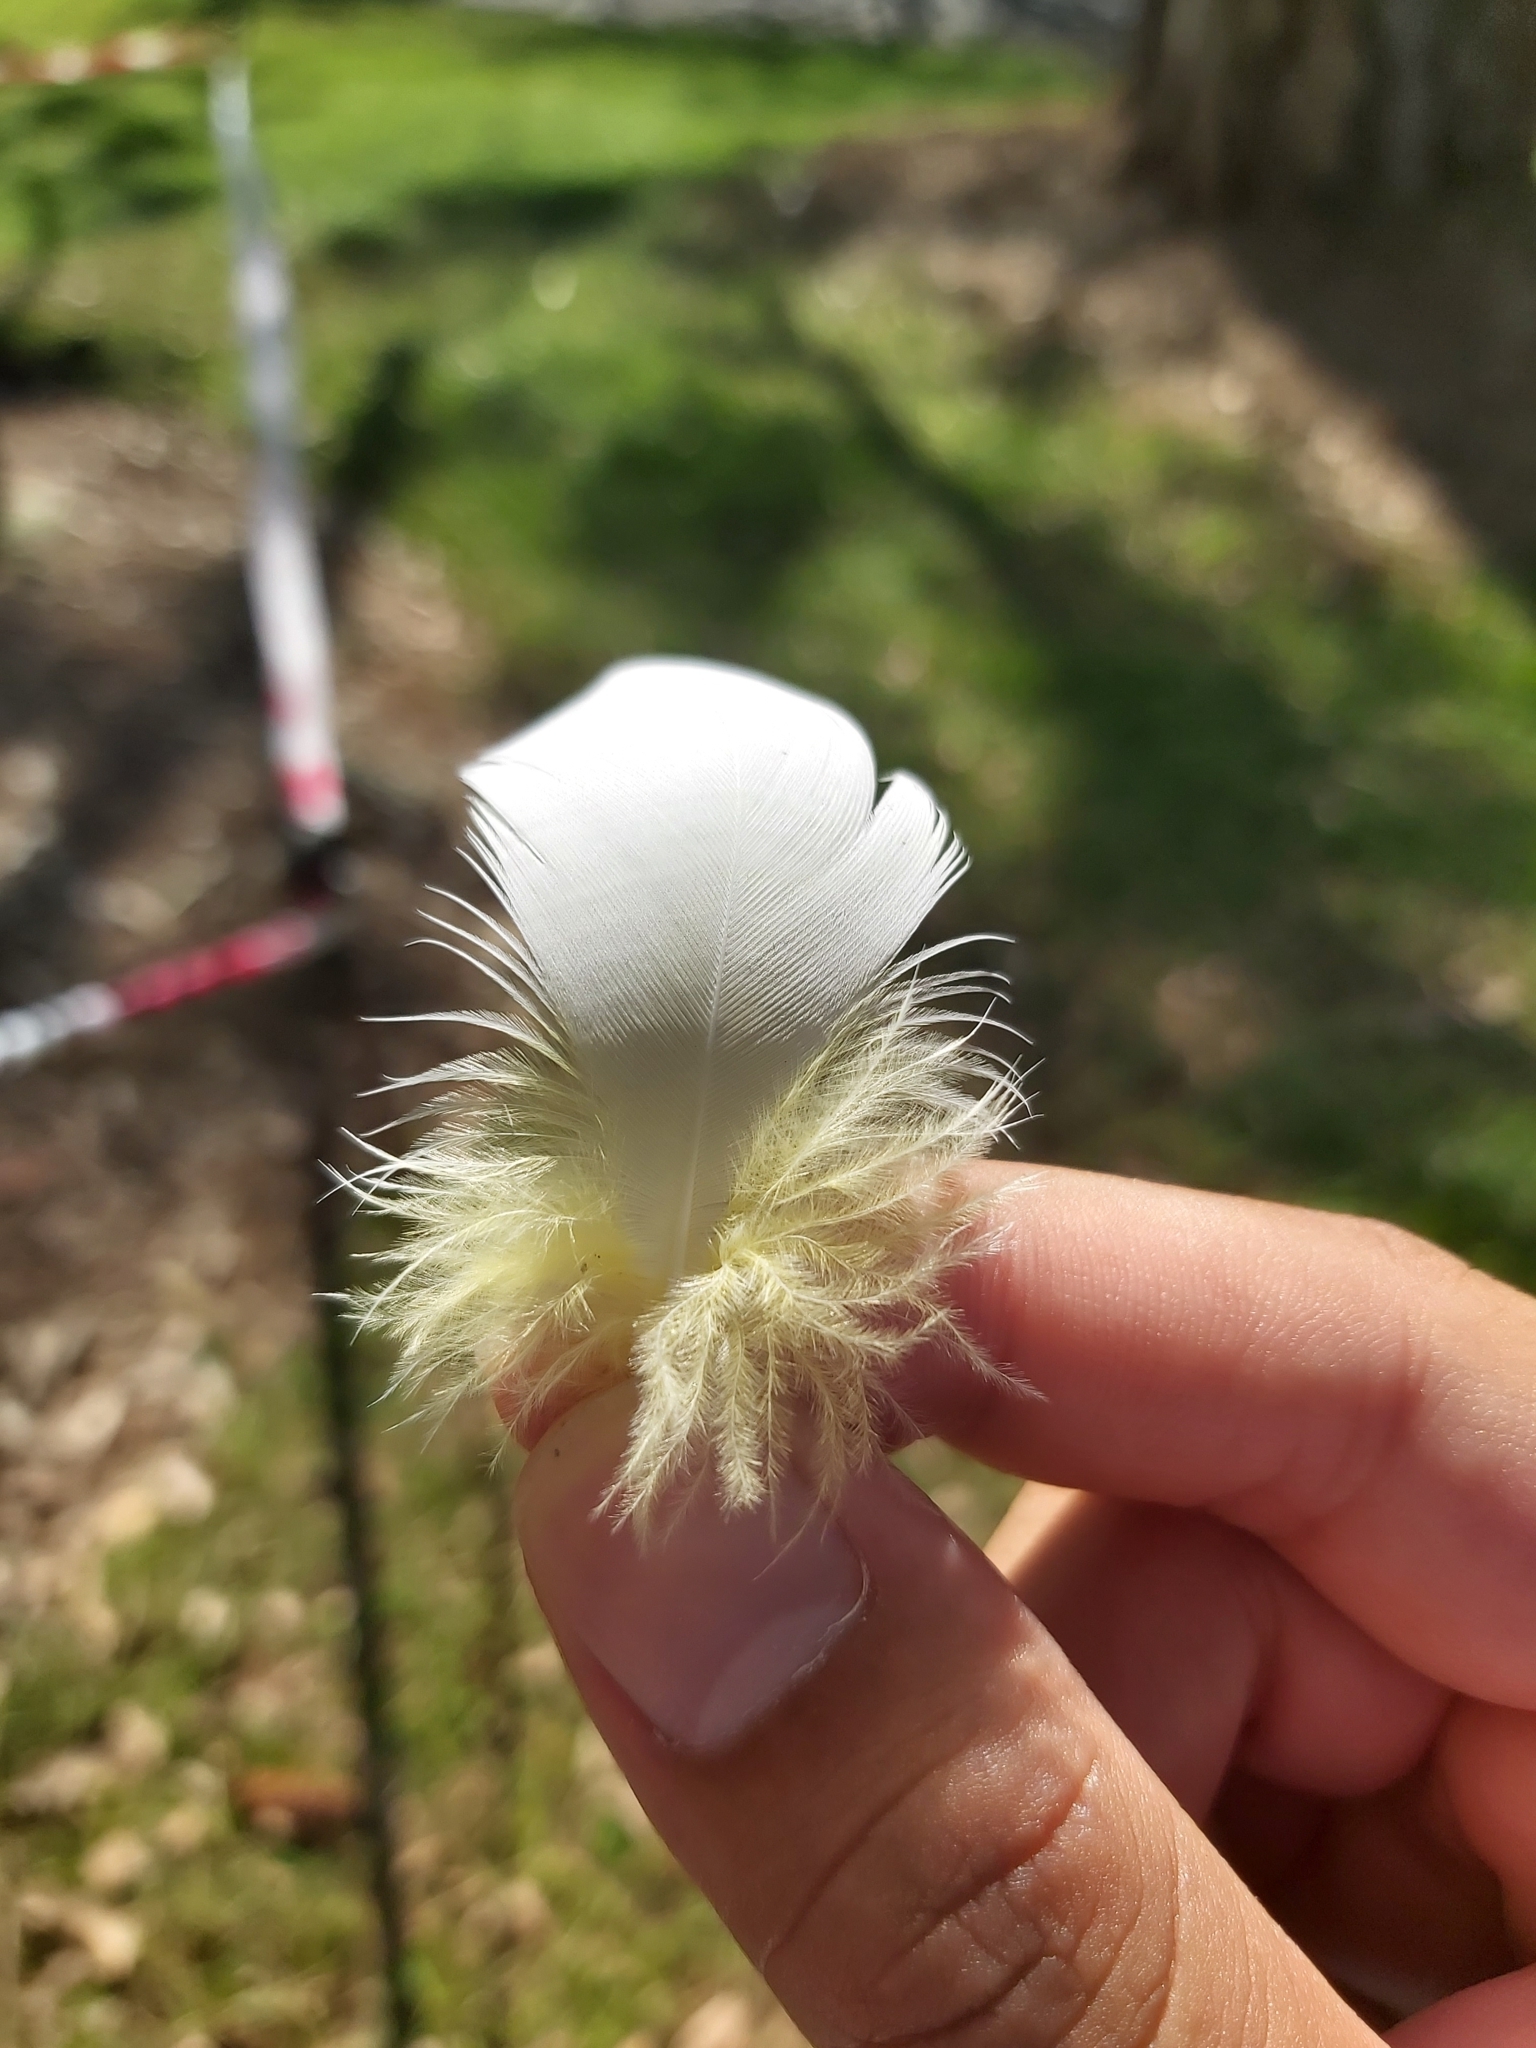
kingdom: Animalia
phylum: Chordata
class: Aves
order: Psittaciformes
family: Psittacidae
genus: Cacatua
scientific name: Cacatua galerita
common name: Sulphur-crested cockatoo
